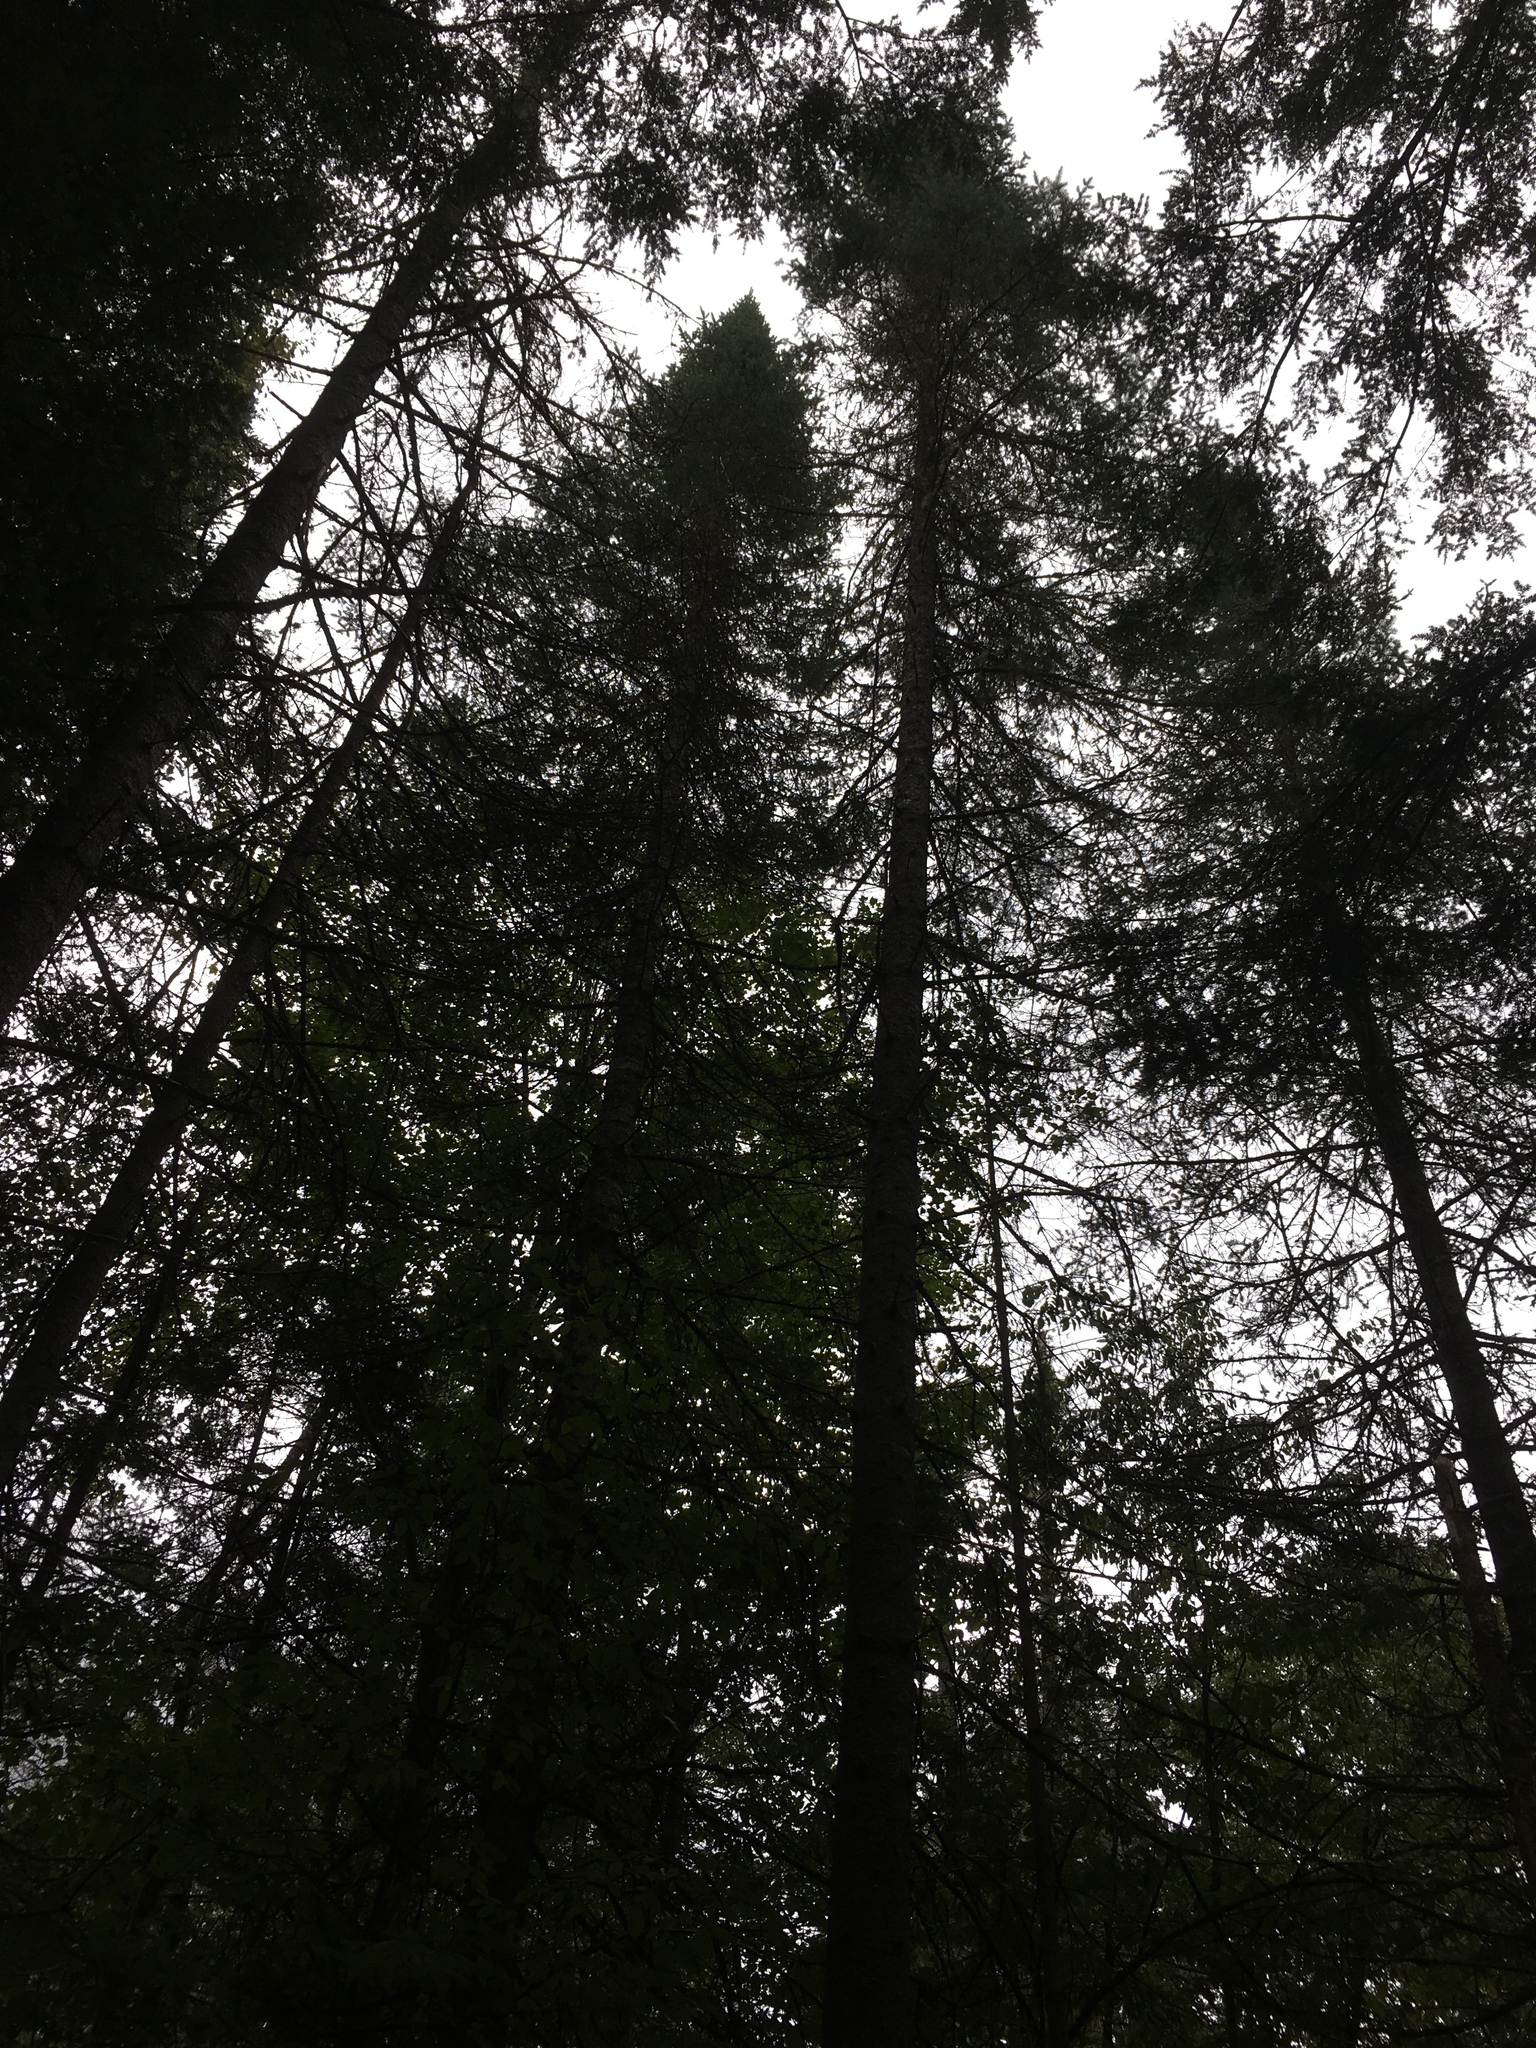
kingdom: Plantae
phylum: Tracheophyta
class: Pinopsida
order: Pinales
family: Pinaceae
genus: Abies
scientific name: Abies balsamea
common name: Balsam fir
